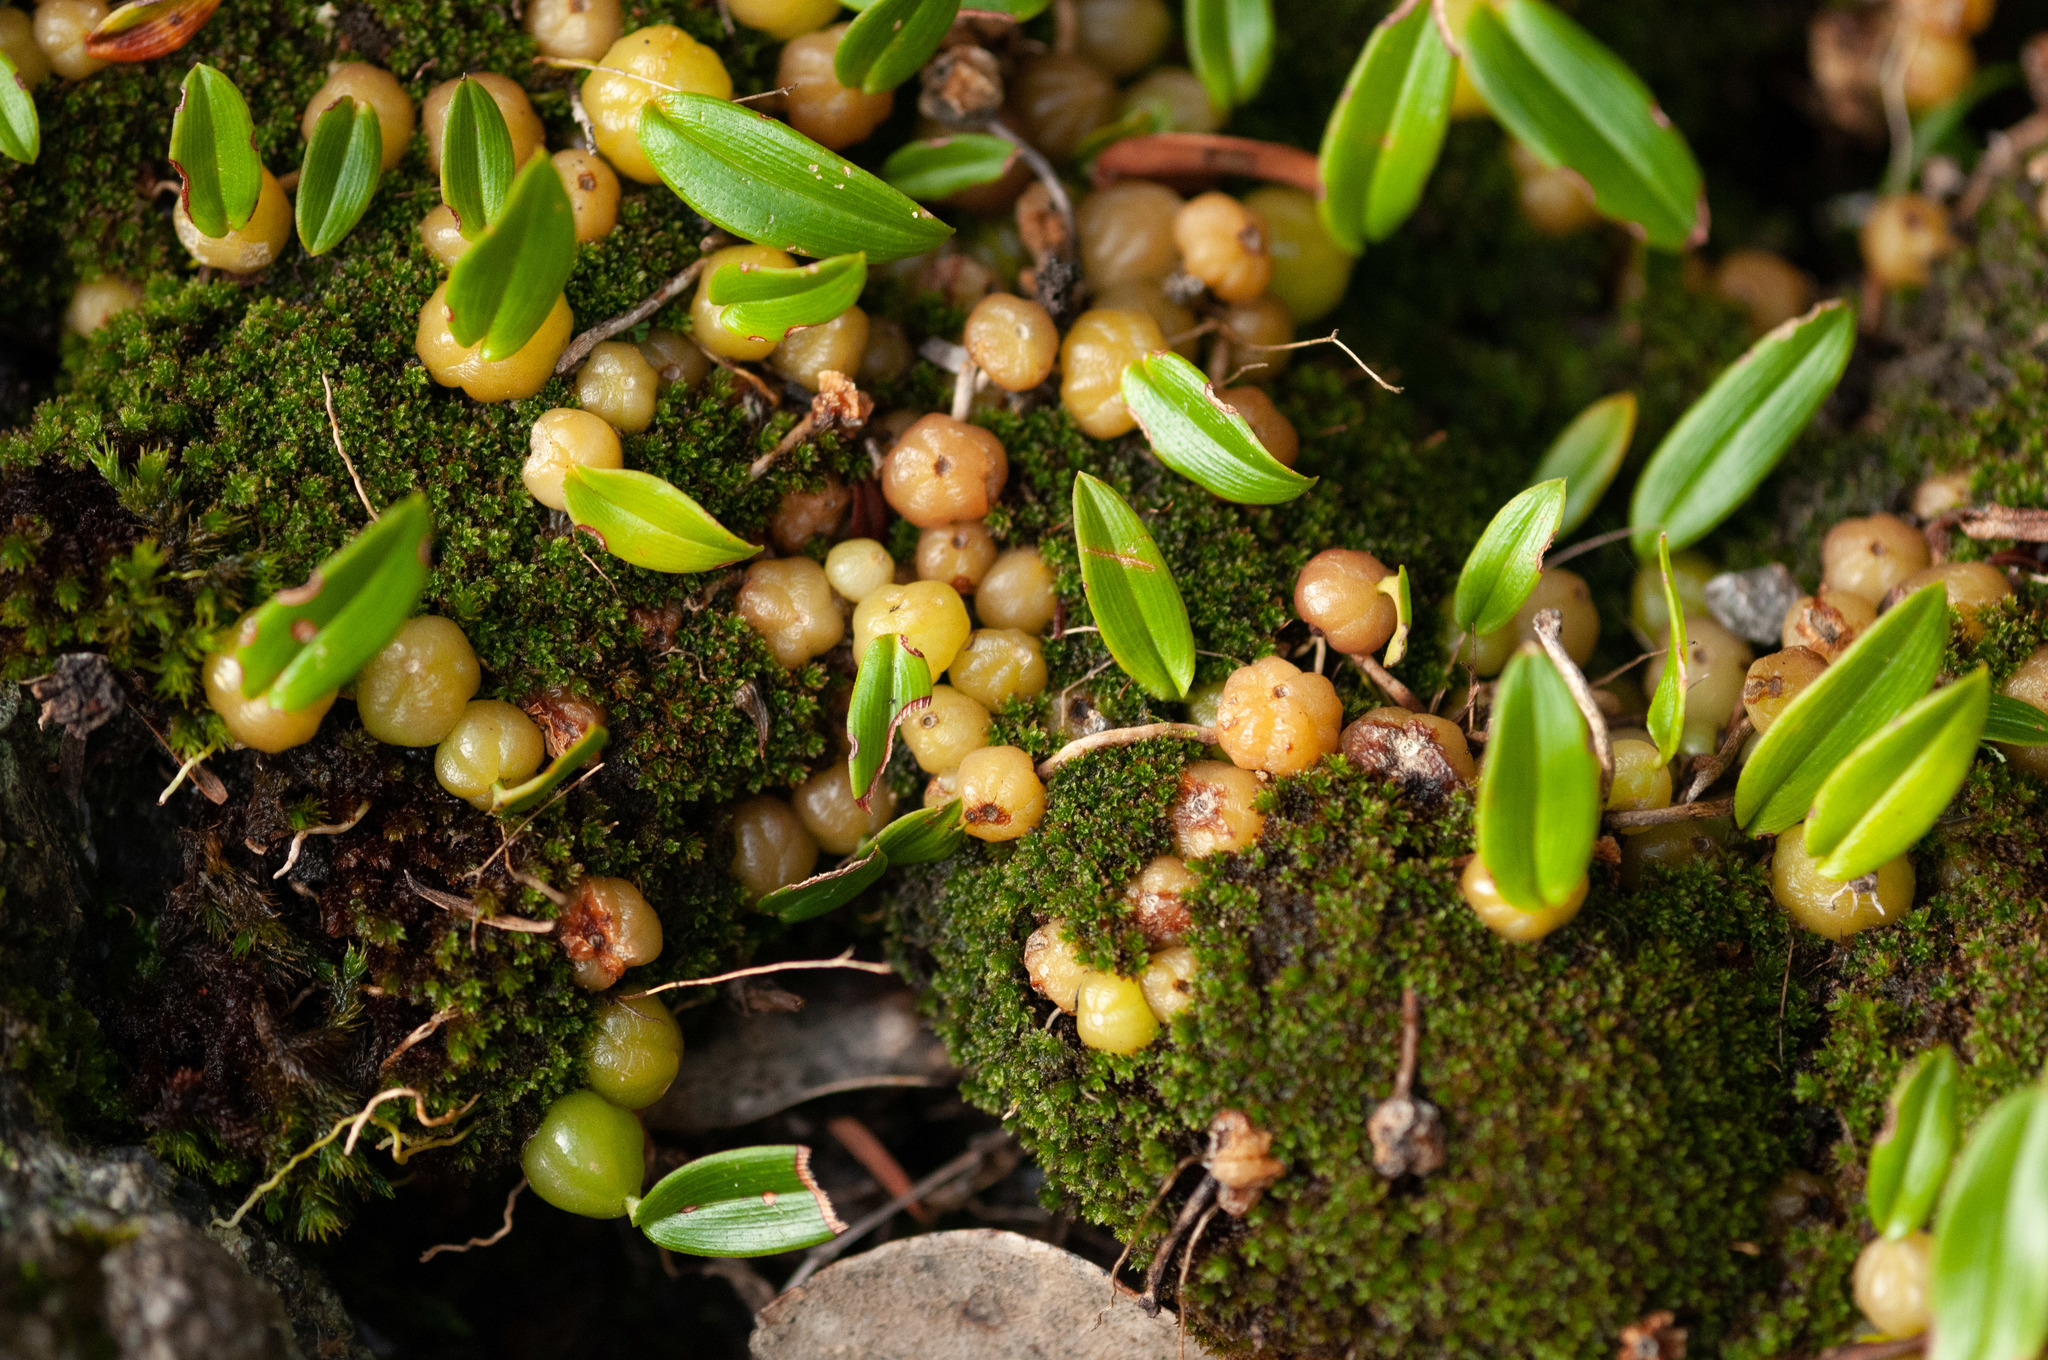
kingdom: Plantae
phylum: Tracheophyta
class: Liliopsida
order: Asparagales
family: Orchidaceae
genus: Bulbophyllum
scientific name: Bulbophyllum exiguum
